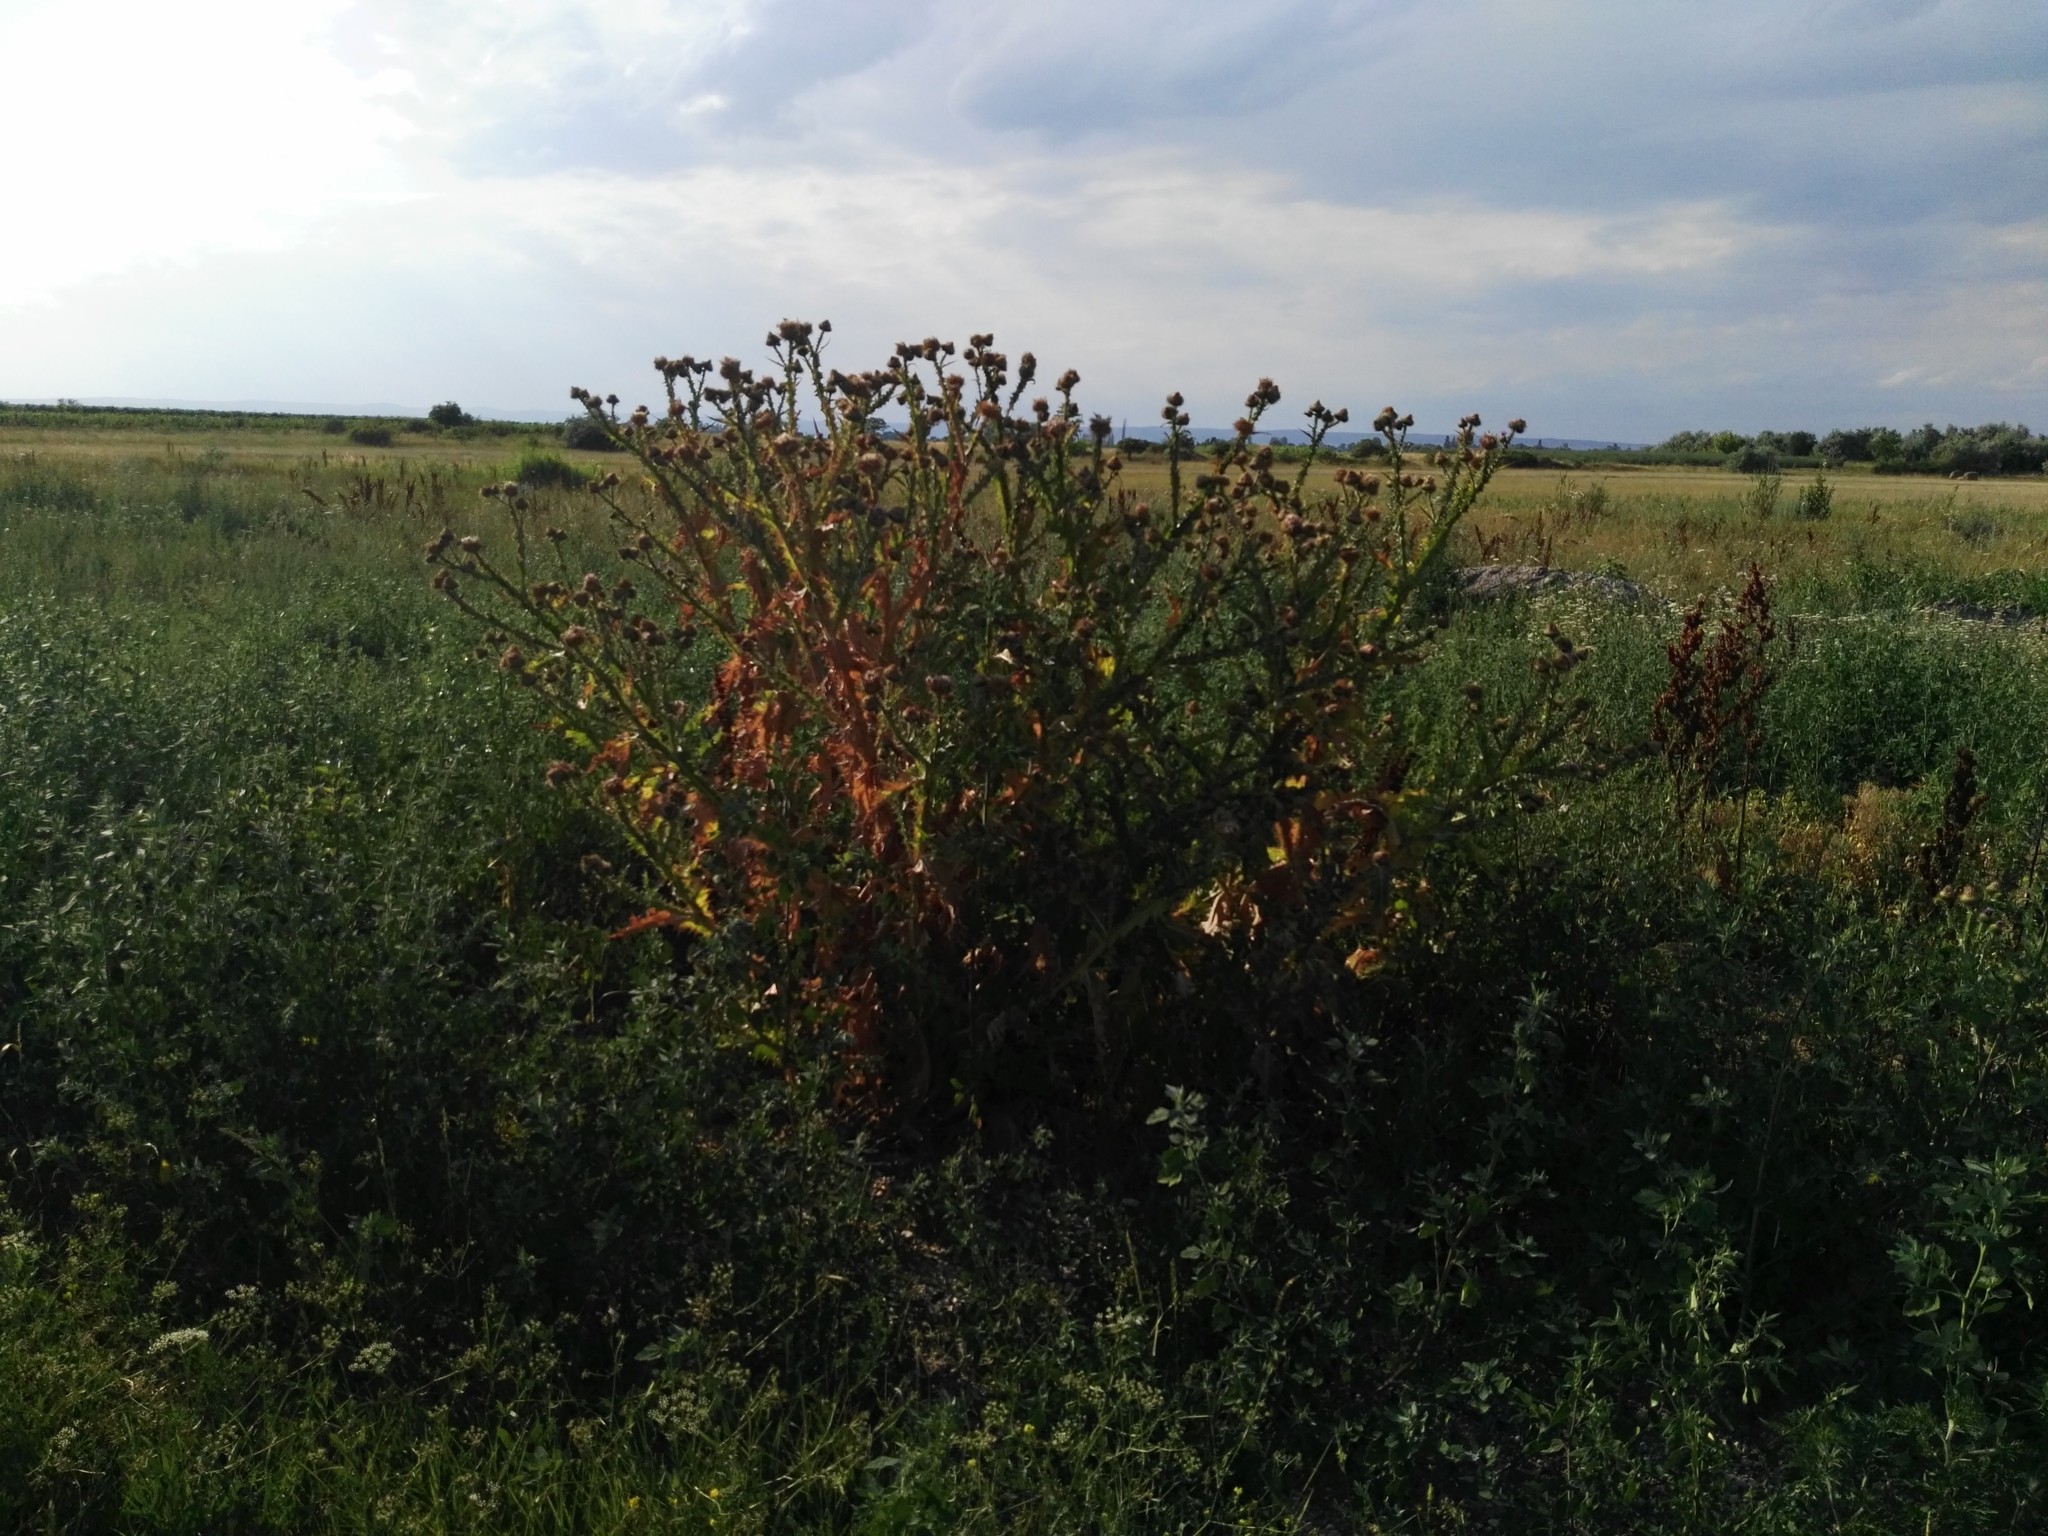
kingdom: Plantae
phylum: Tracheophyta
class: Magnoliopsida
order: Asterales
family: Asteraceae
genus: Onopordum
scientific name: Onopordum acanthium
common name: Scotch thistle
